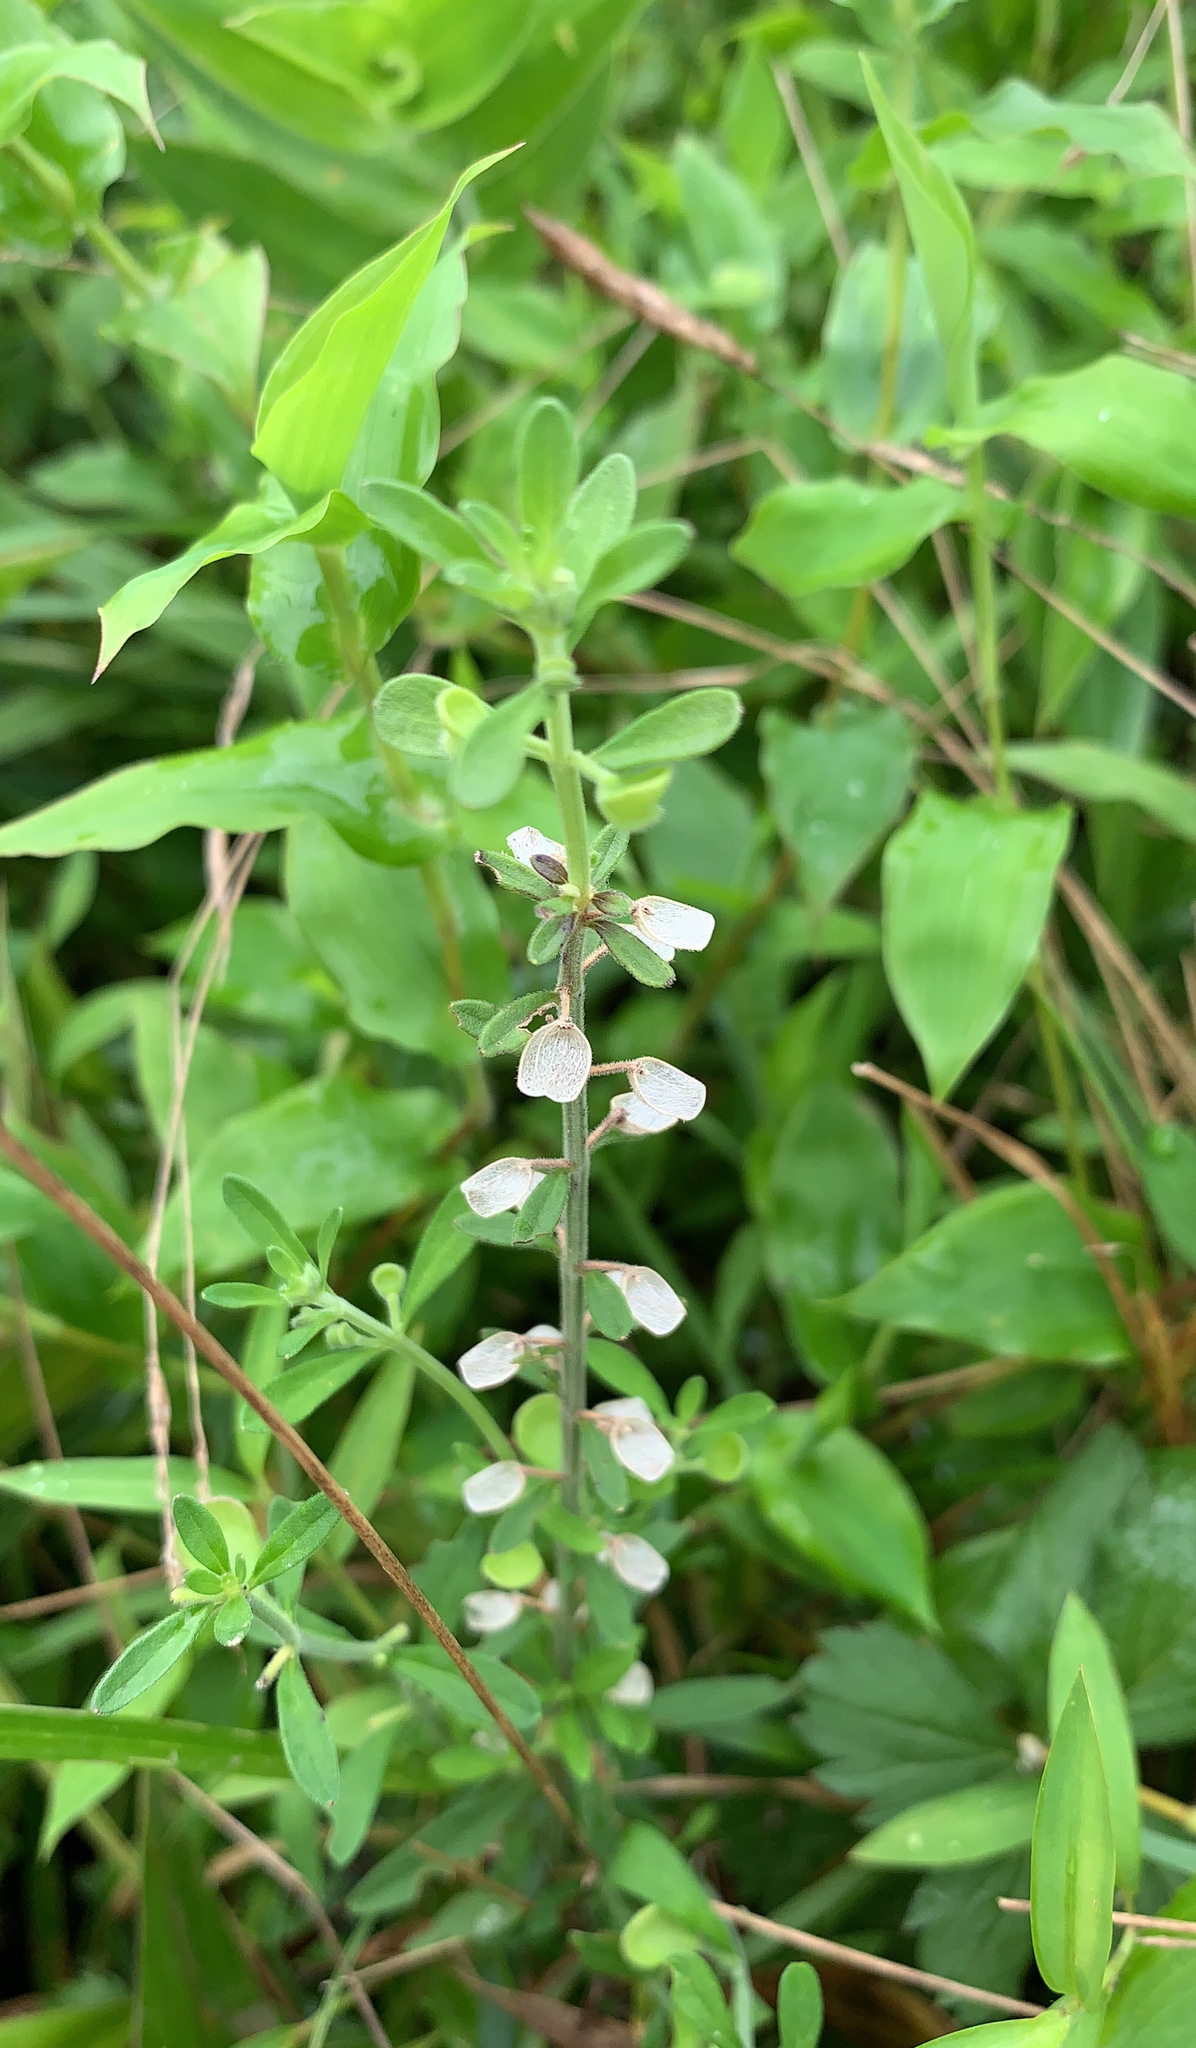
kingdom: Plantae
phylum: Tracheophyta
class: Magnoliopsida
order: Lamiales
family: Lamiaceae
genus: Scutellaria
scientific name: Scutellaria integrifolia
